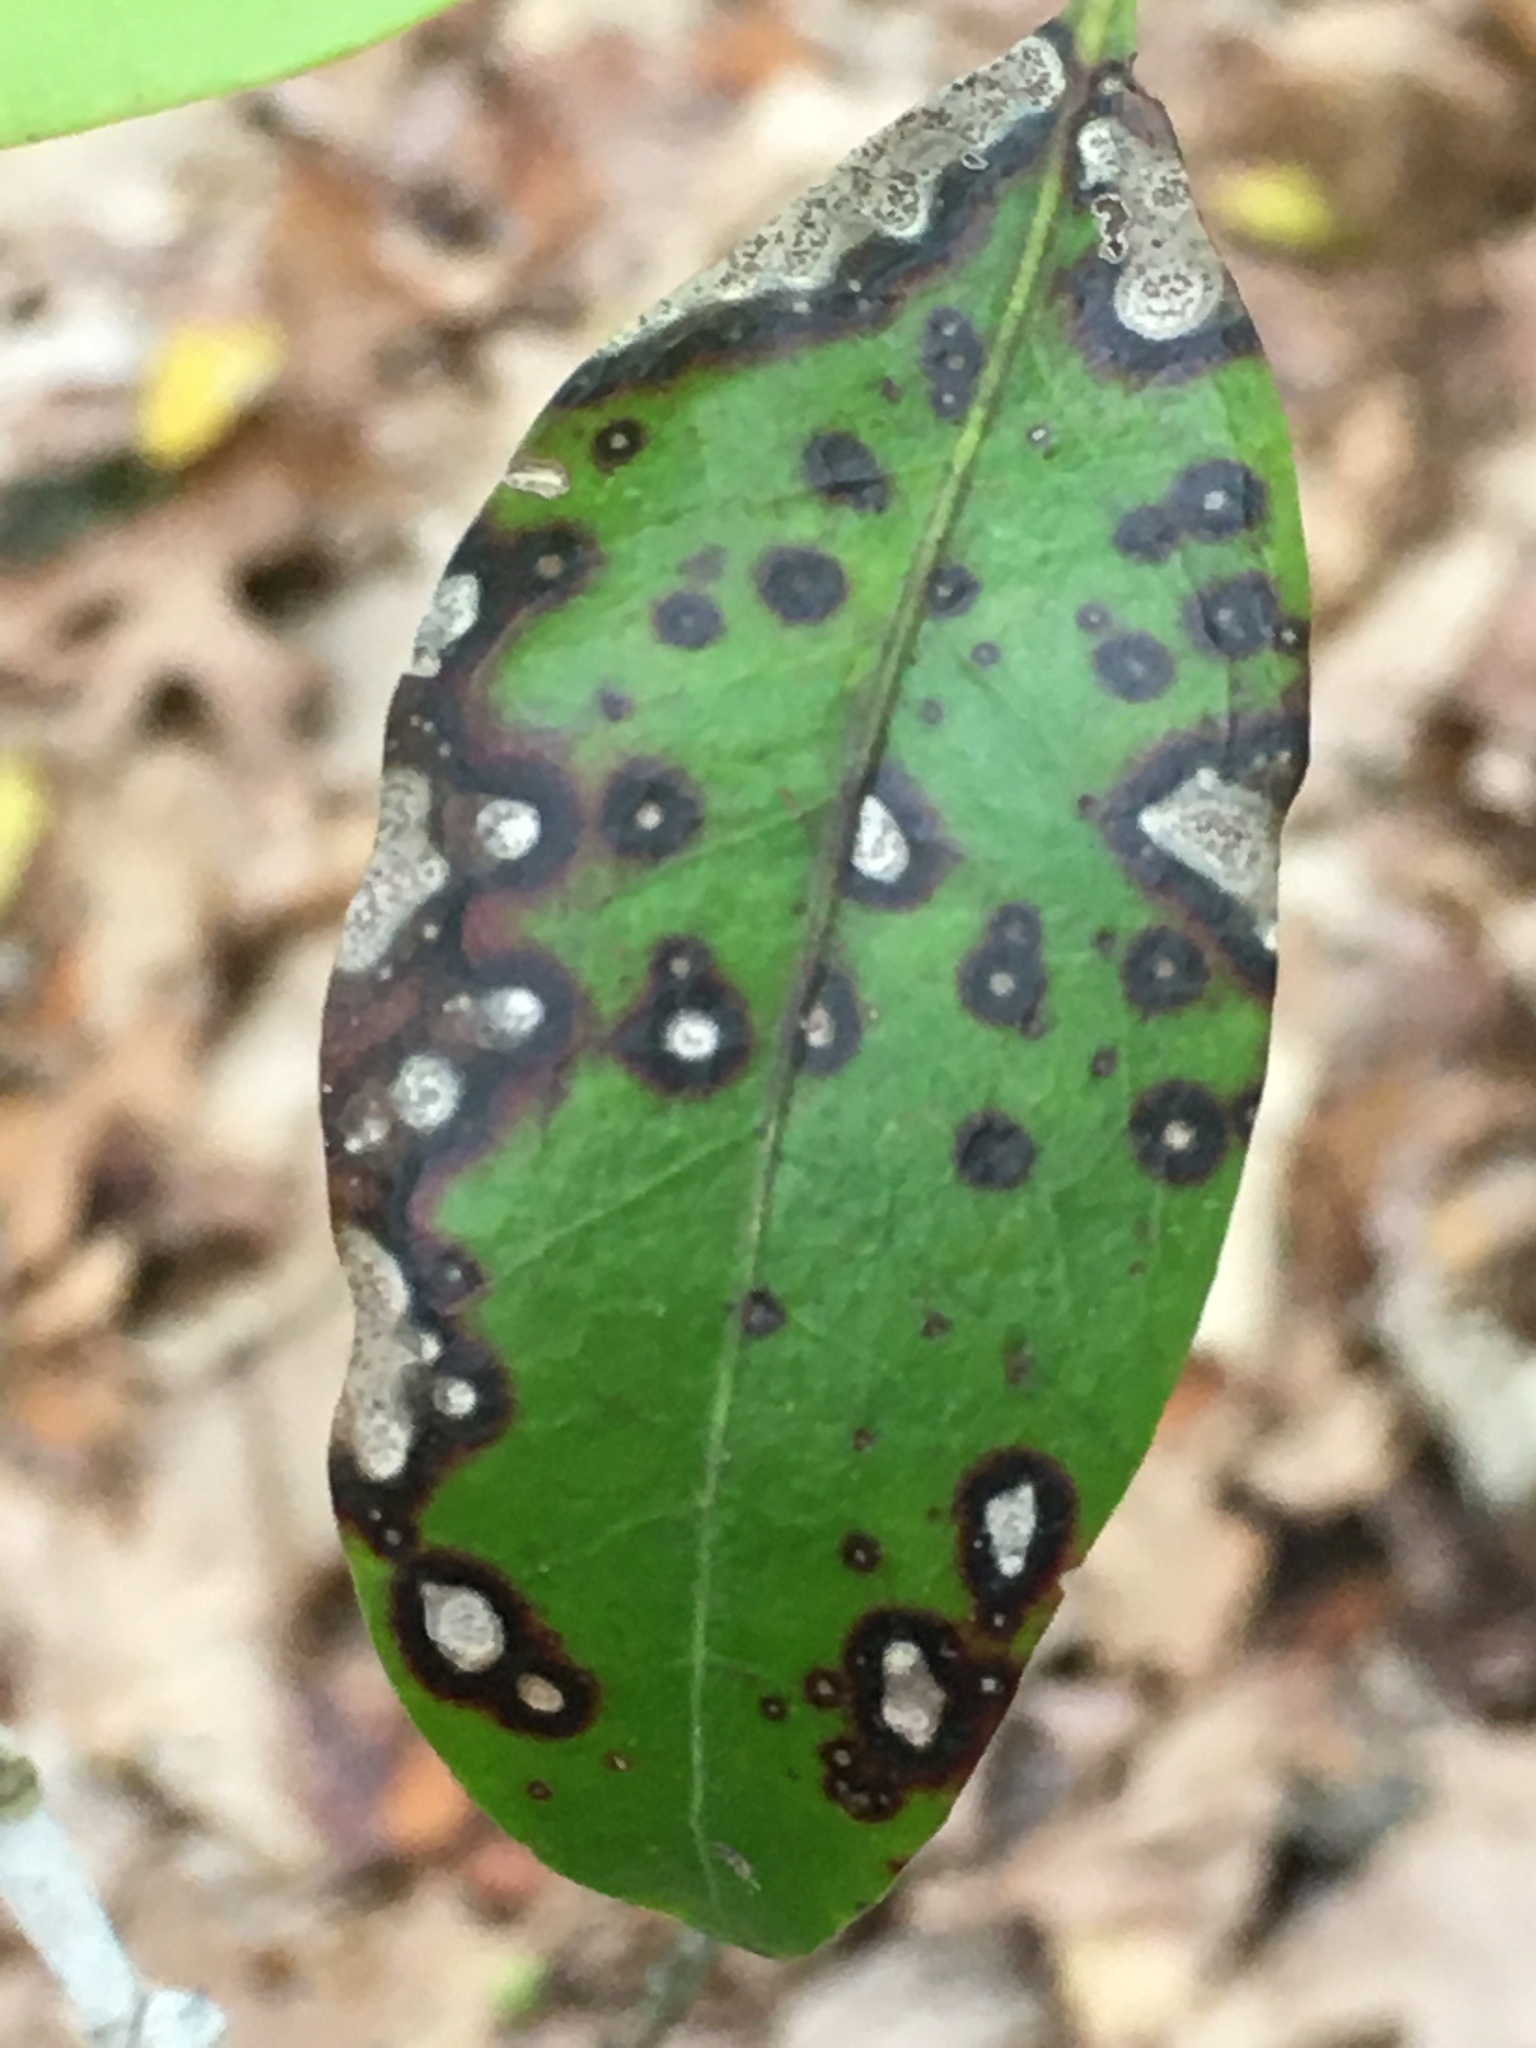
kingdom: Fungi
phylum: Ascomycota
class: Dothideomycetes
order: Mycosphaerellales
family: Mycosphaerellaceae
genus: Mycosphaerella
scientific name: Mycosphaerella colorata
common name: Mountain laurel leaf spot
